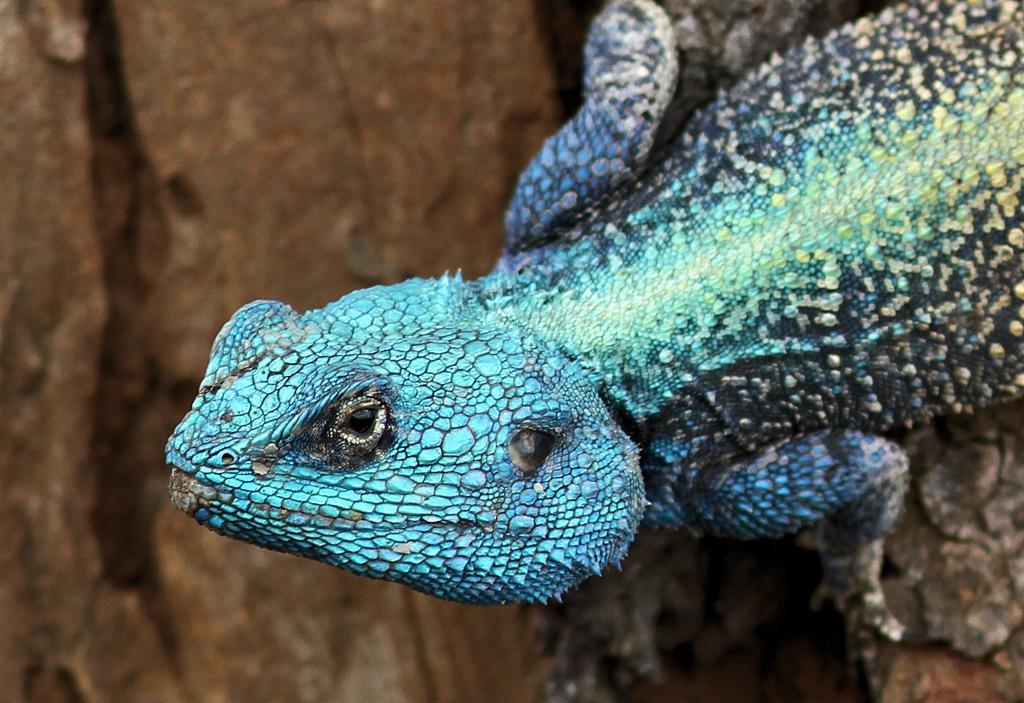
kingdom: Animalia
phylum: Chordata
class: Squamata
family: Agamidae
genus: Acanthocercus
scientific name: Acanthocercus atricollis
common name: Southern tree agama
